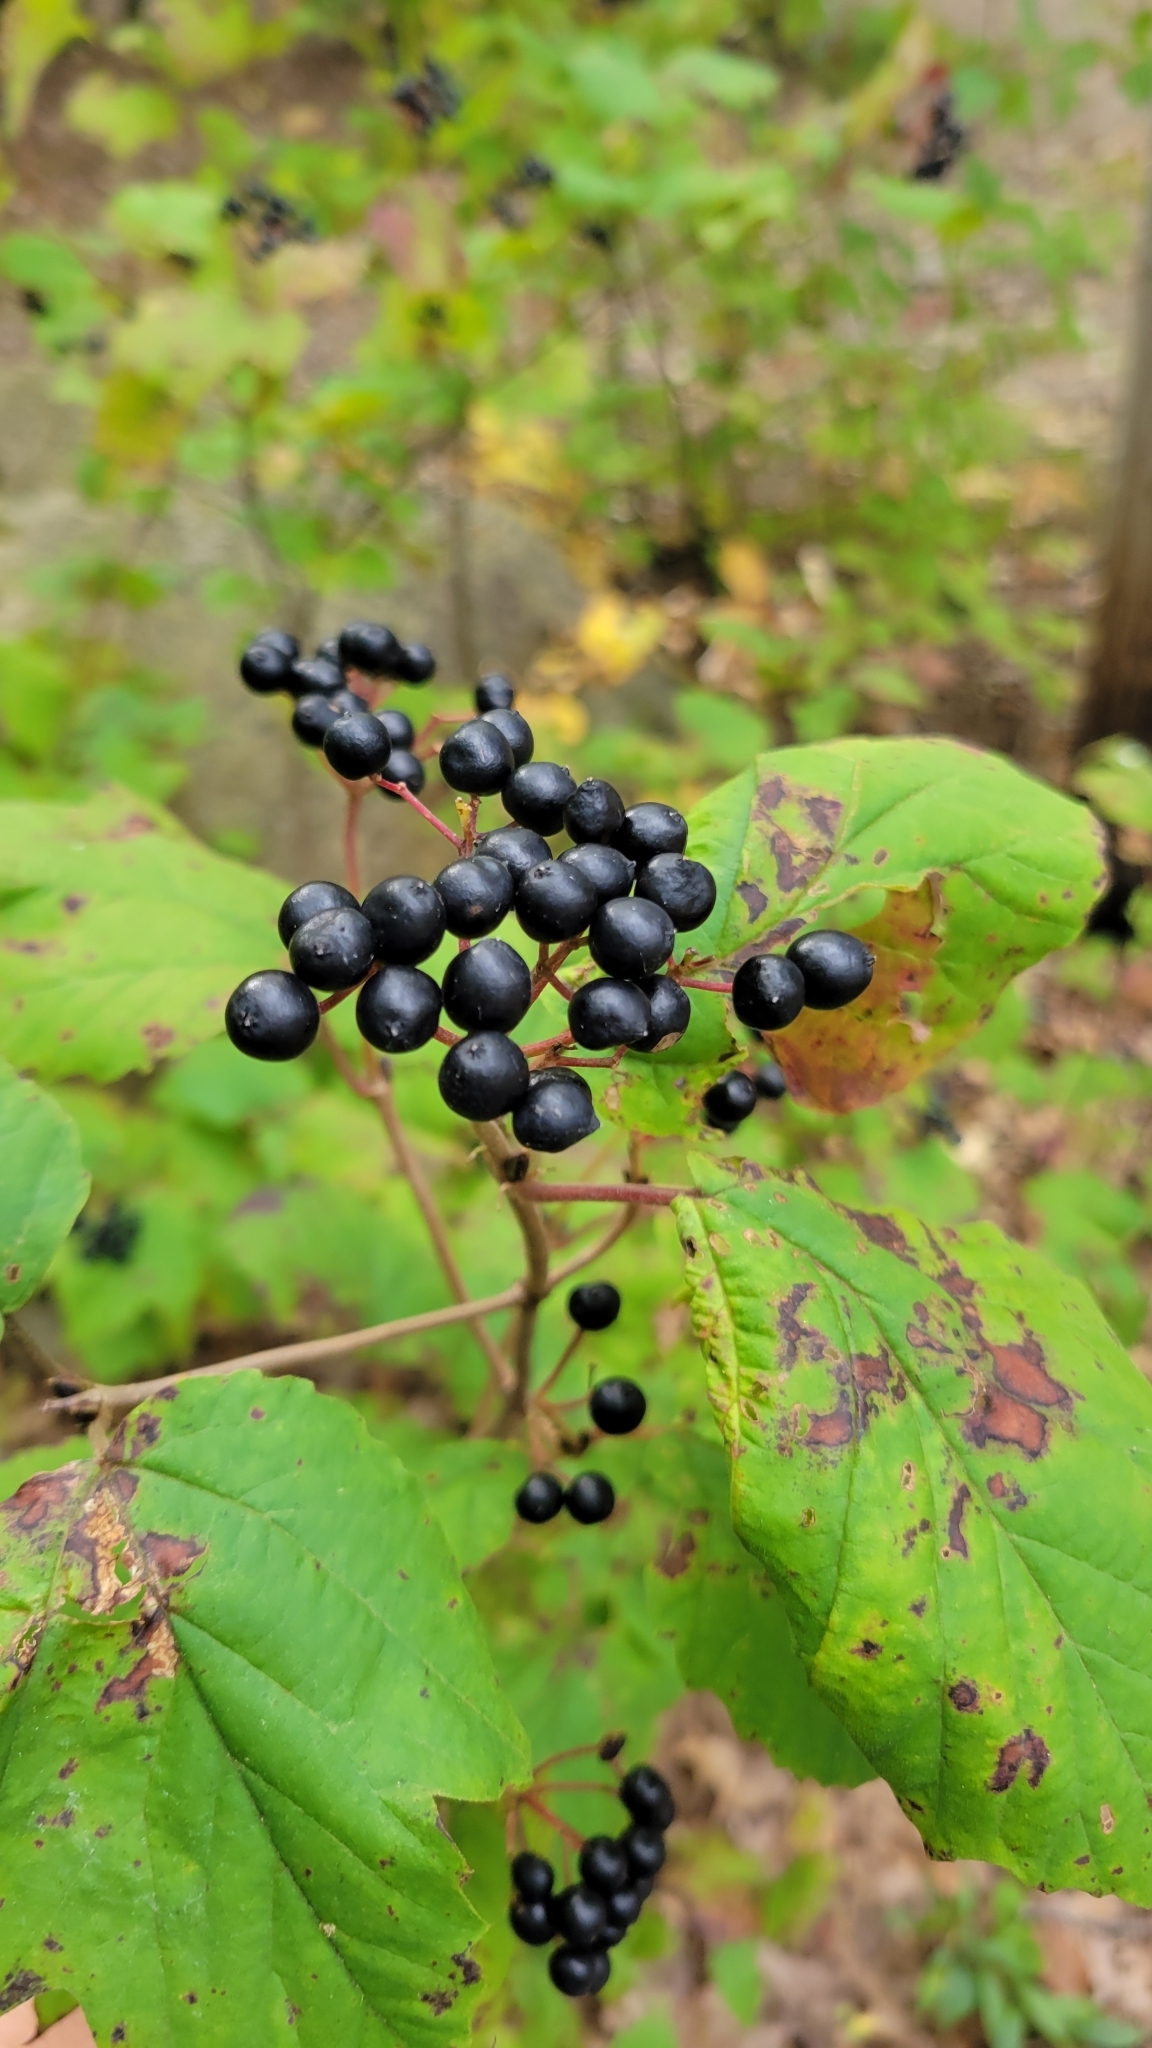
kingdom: Plantae
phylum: Tracheophyta
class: Magnoliopsida
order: Dipsacales
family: Viburnaceae
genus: Viburnum
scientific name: Viburnum acerifolium
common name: Dockmackie
